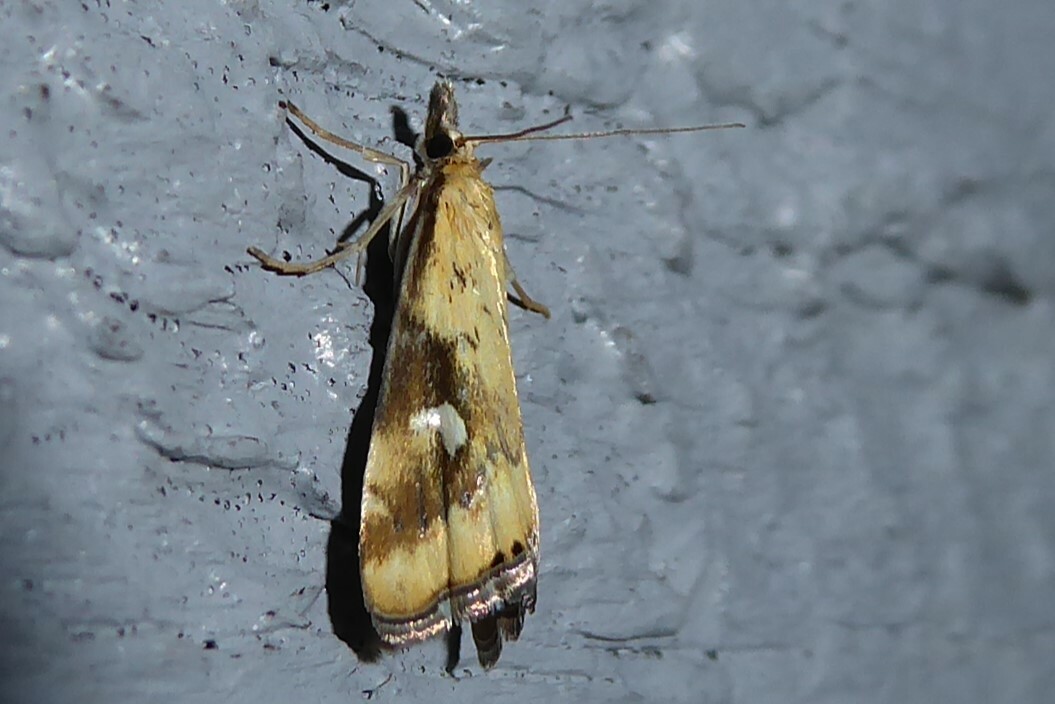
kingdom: Animalia
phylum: Arthropoda
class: Insecta
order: Lepidoptera
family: Crambidae
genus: Glaucocharis
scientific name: Glaucocharis lepidella
